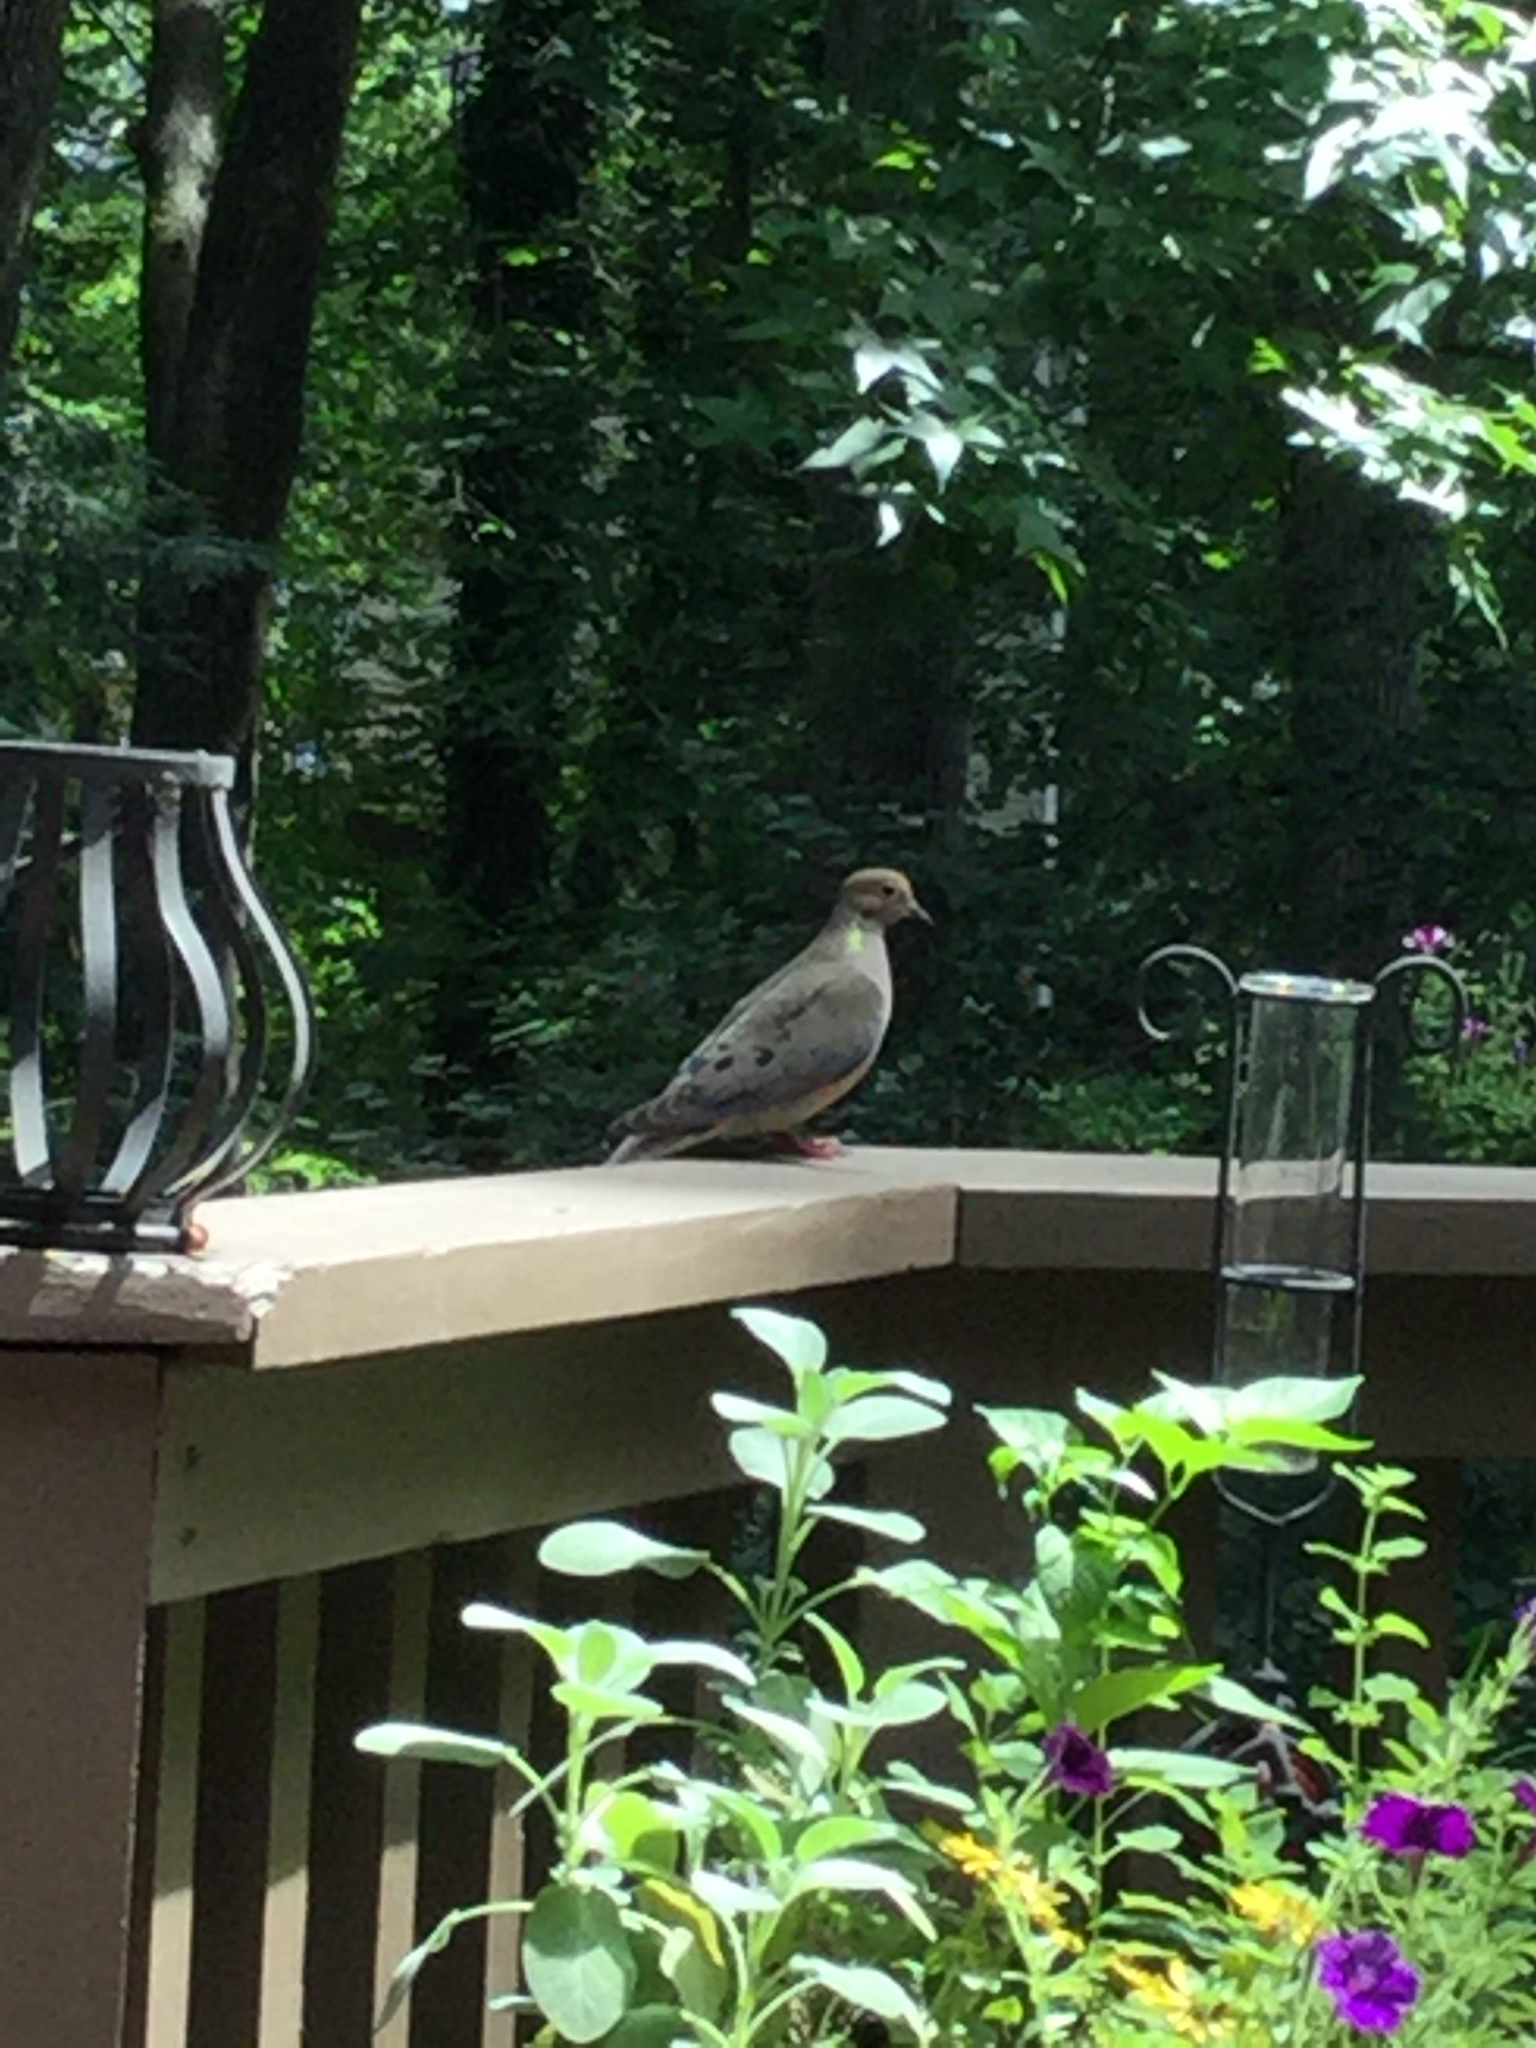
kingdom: Animalia
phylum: Chordata
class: Aves
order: Columbiformes
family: Columbidae
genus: Zenaida
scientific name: Zenaida macroura
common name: Mourning dove
